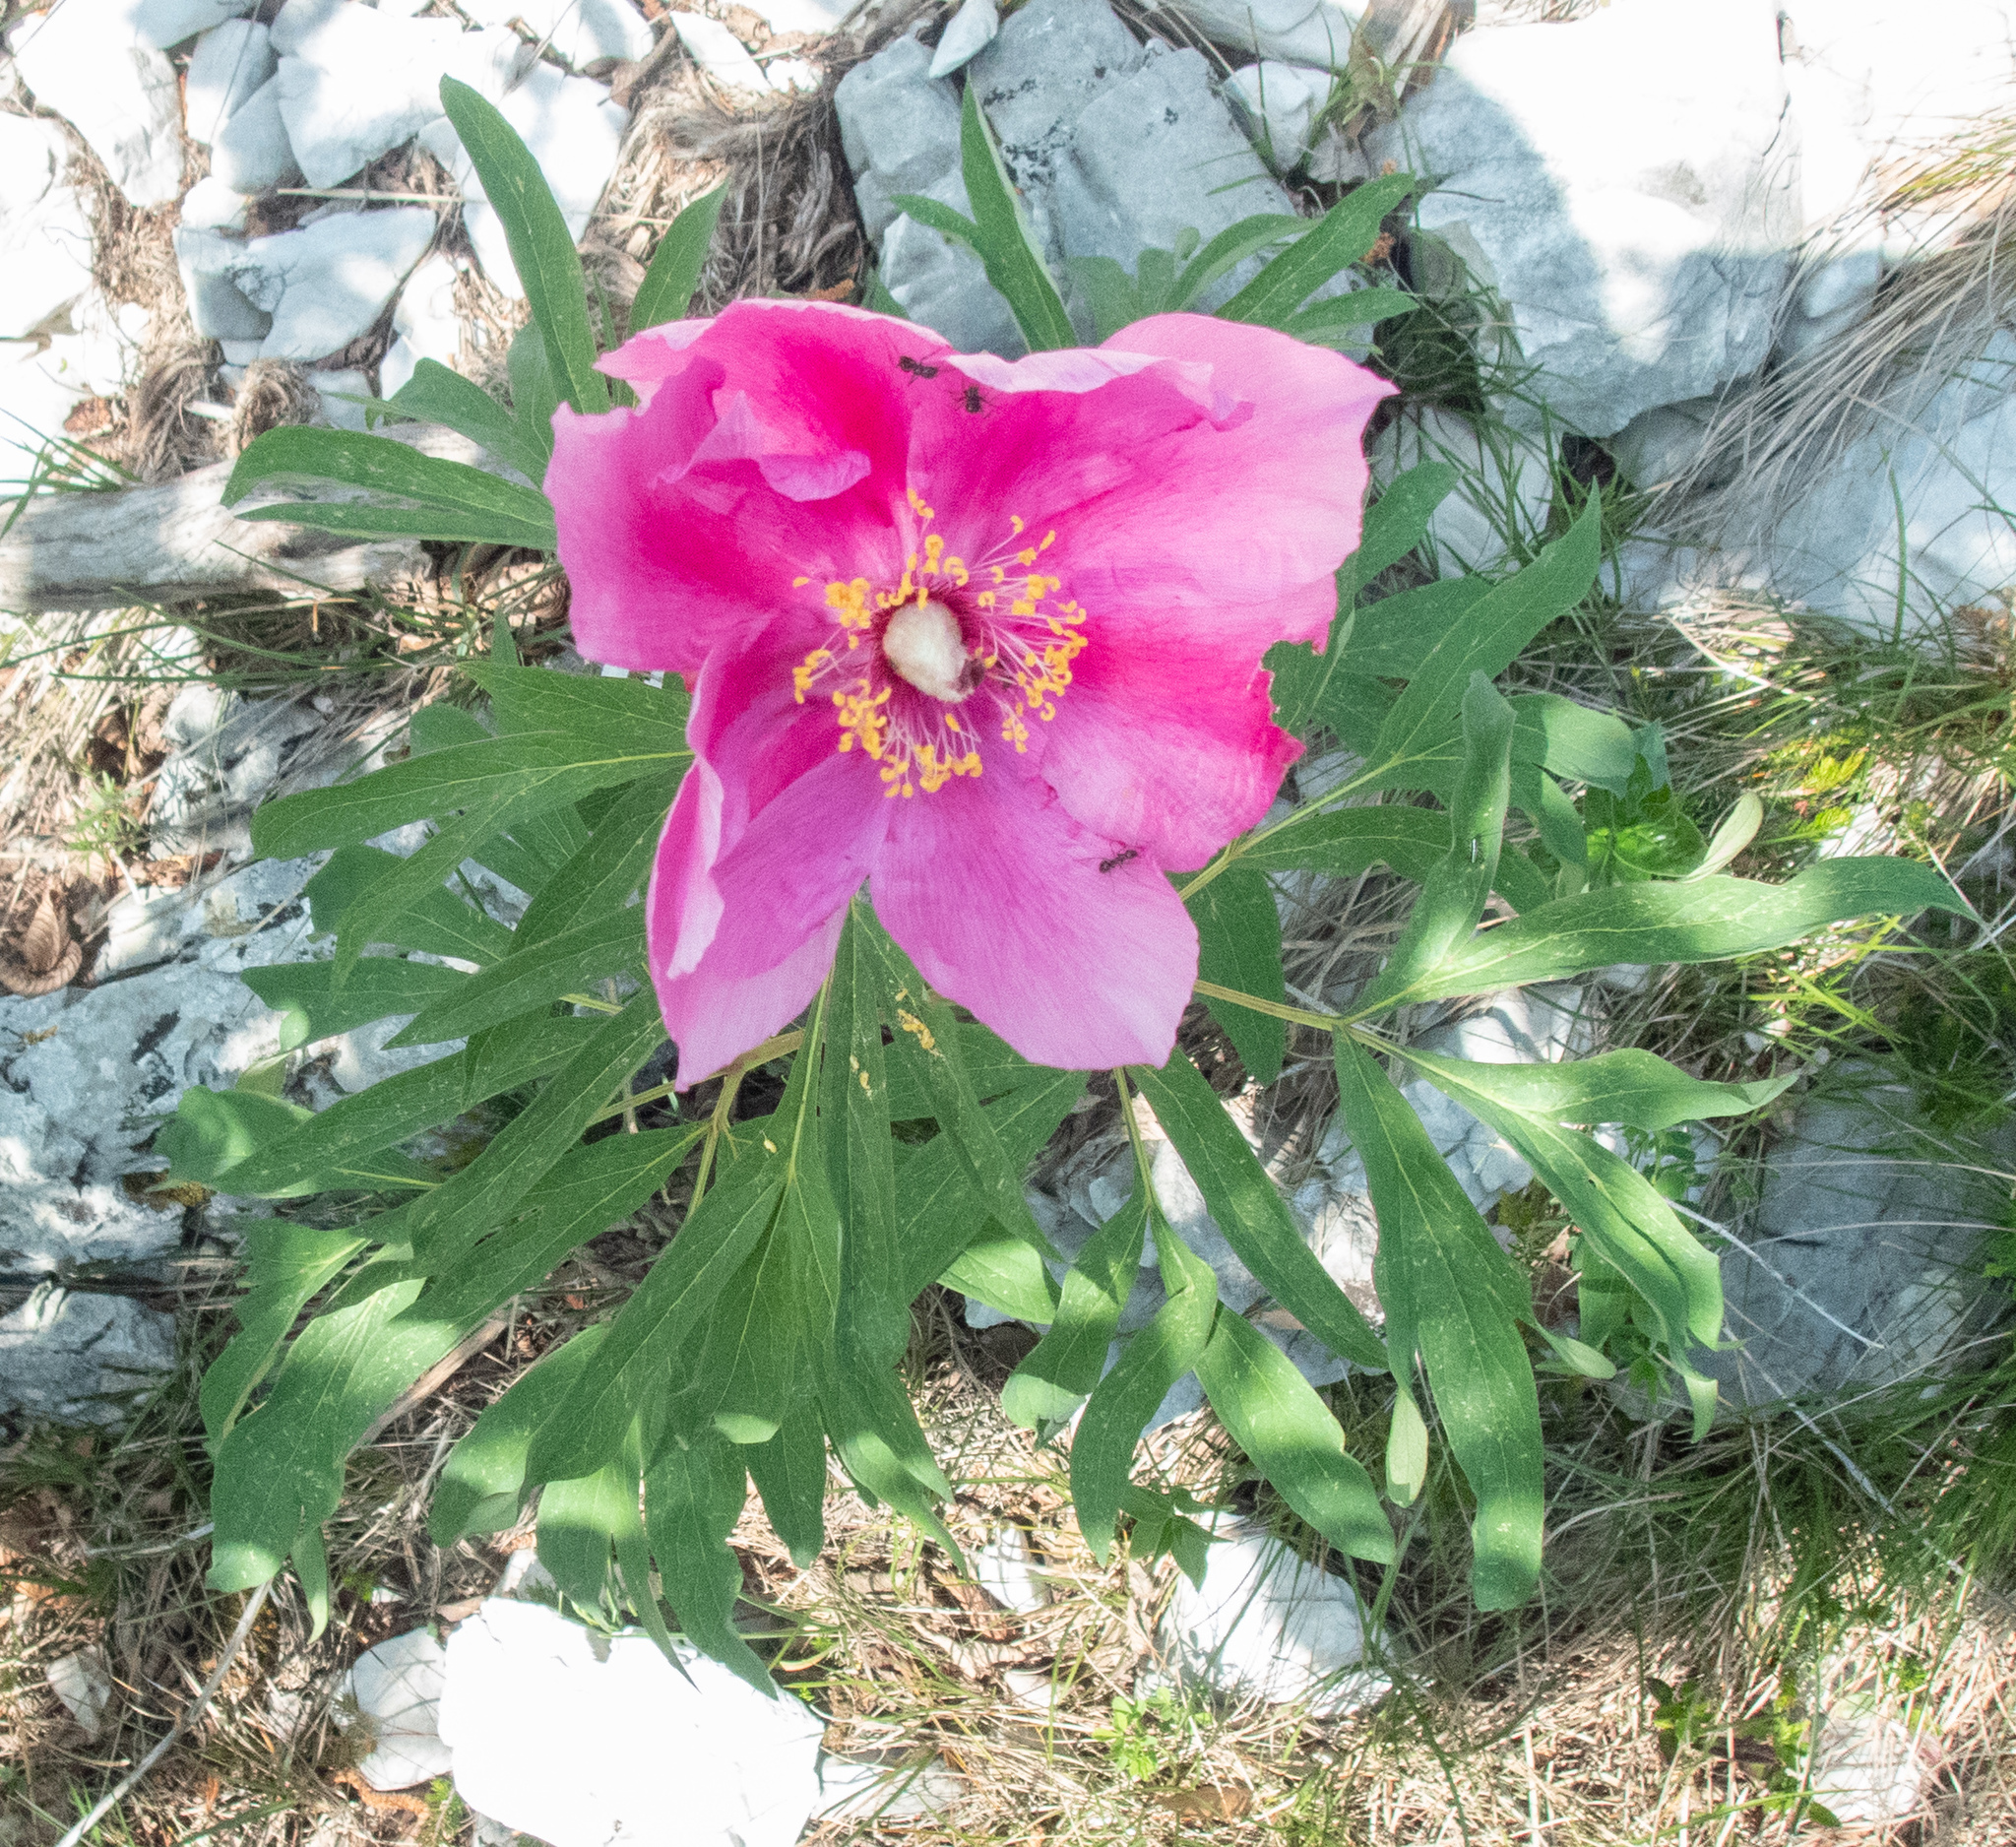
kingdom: Plantae
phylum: Tracheophyta
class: Magnoliopsida
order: Saxifragales
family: Paeoniaceae
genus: Paeonia
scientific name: Paeonia officinalis
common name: Common peony
